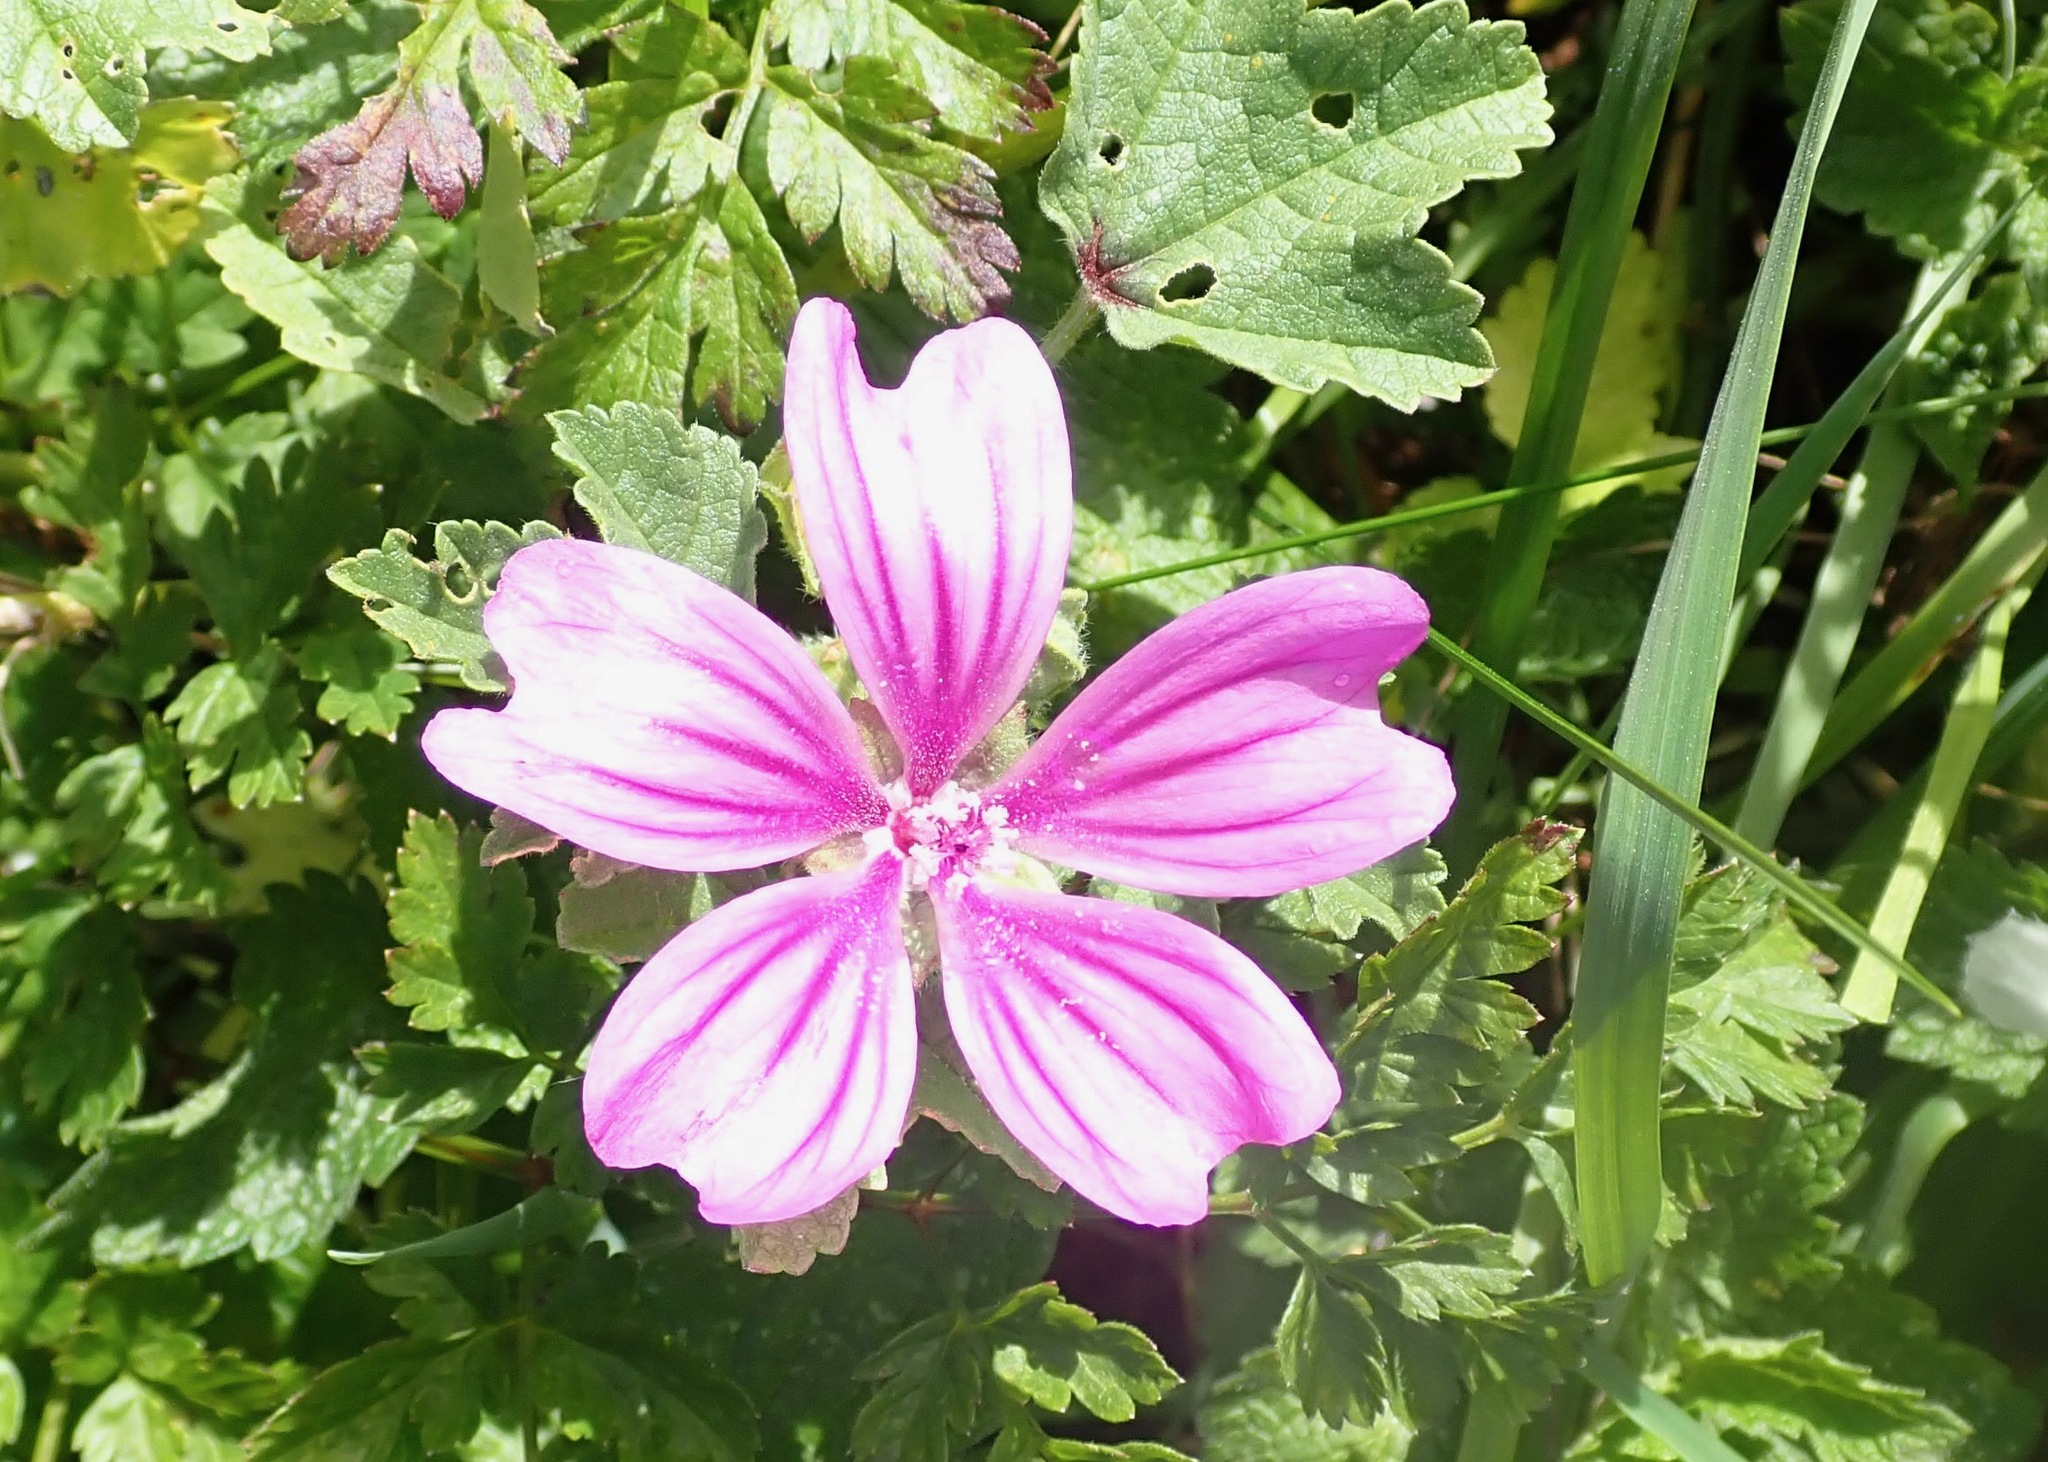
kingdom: Plantae
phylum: Tracheophyta
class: Magnoliopsida
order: Malvales
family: Malvaceae
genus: Malva
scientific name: Malva sylvestris
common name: Common mallow
